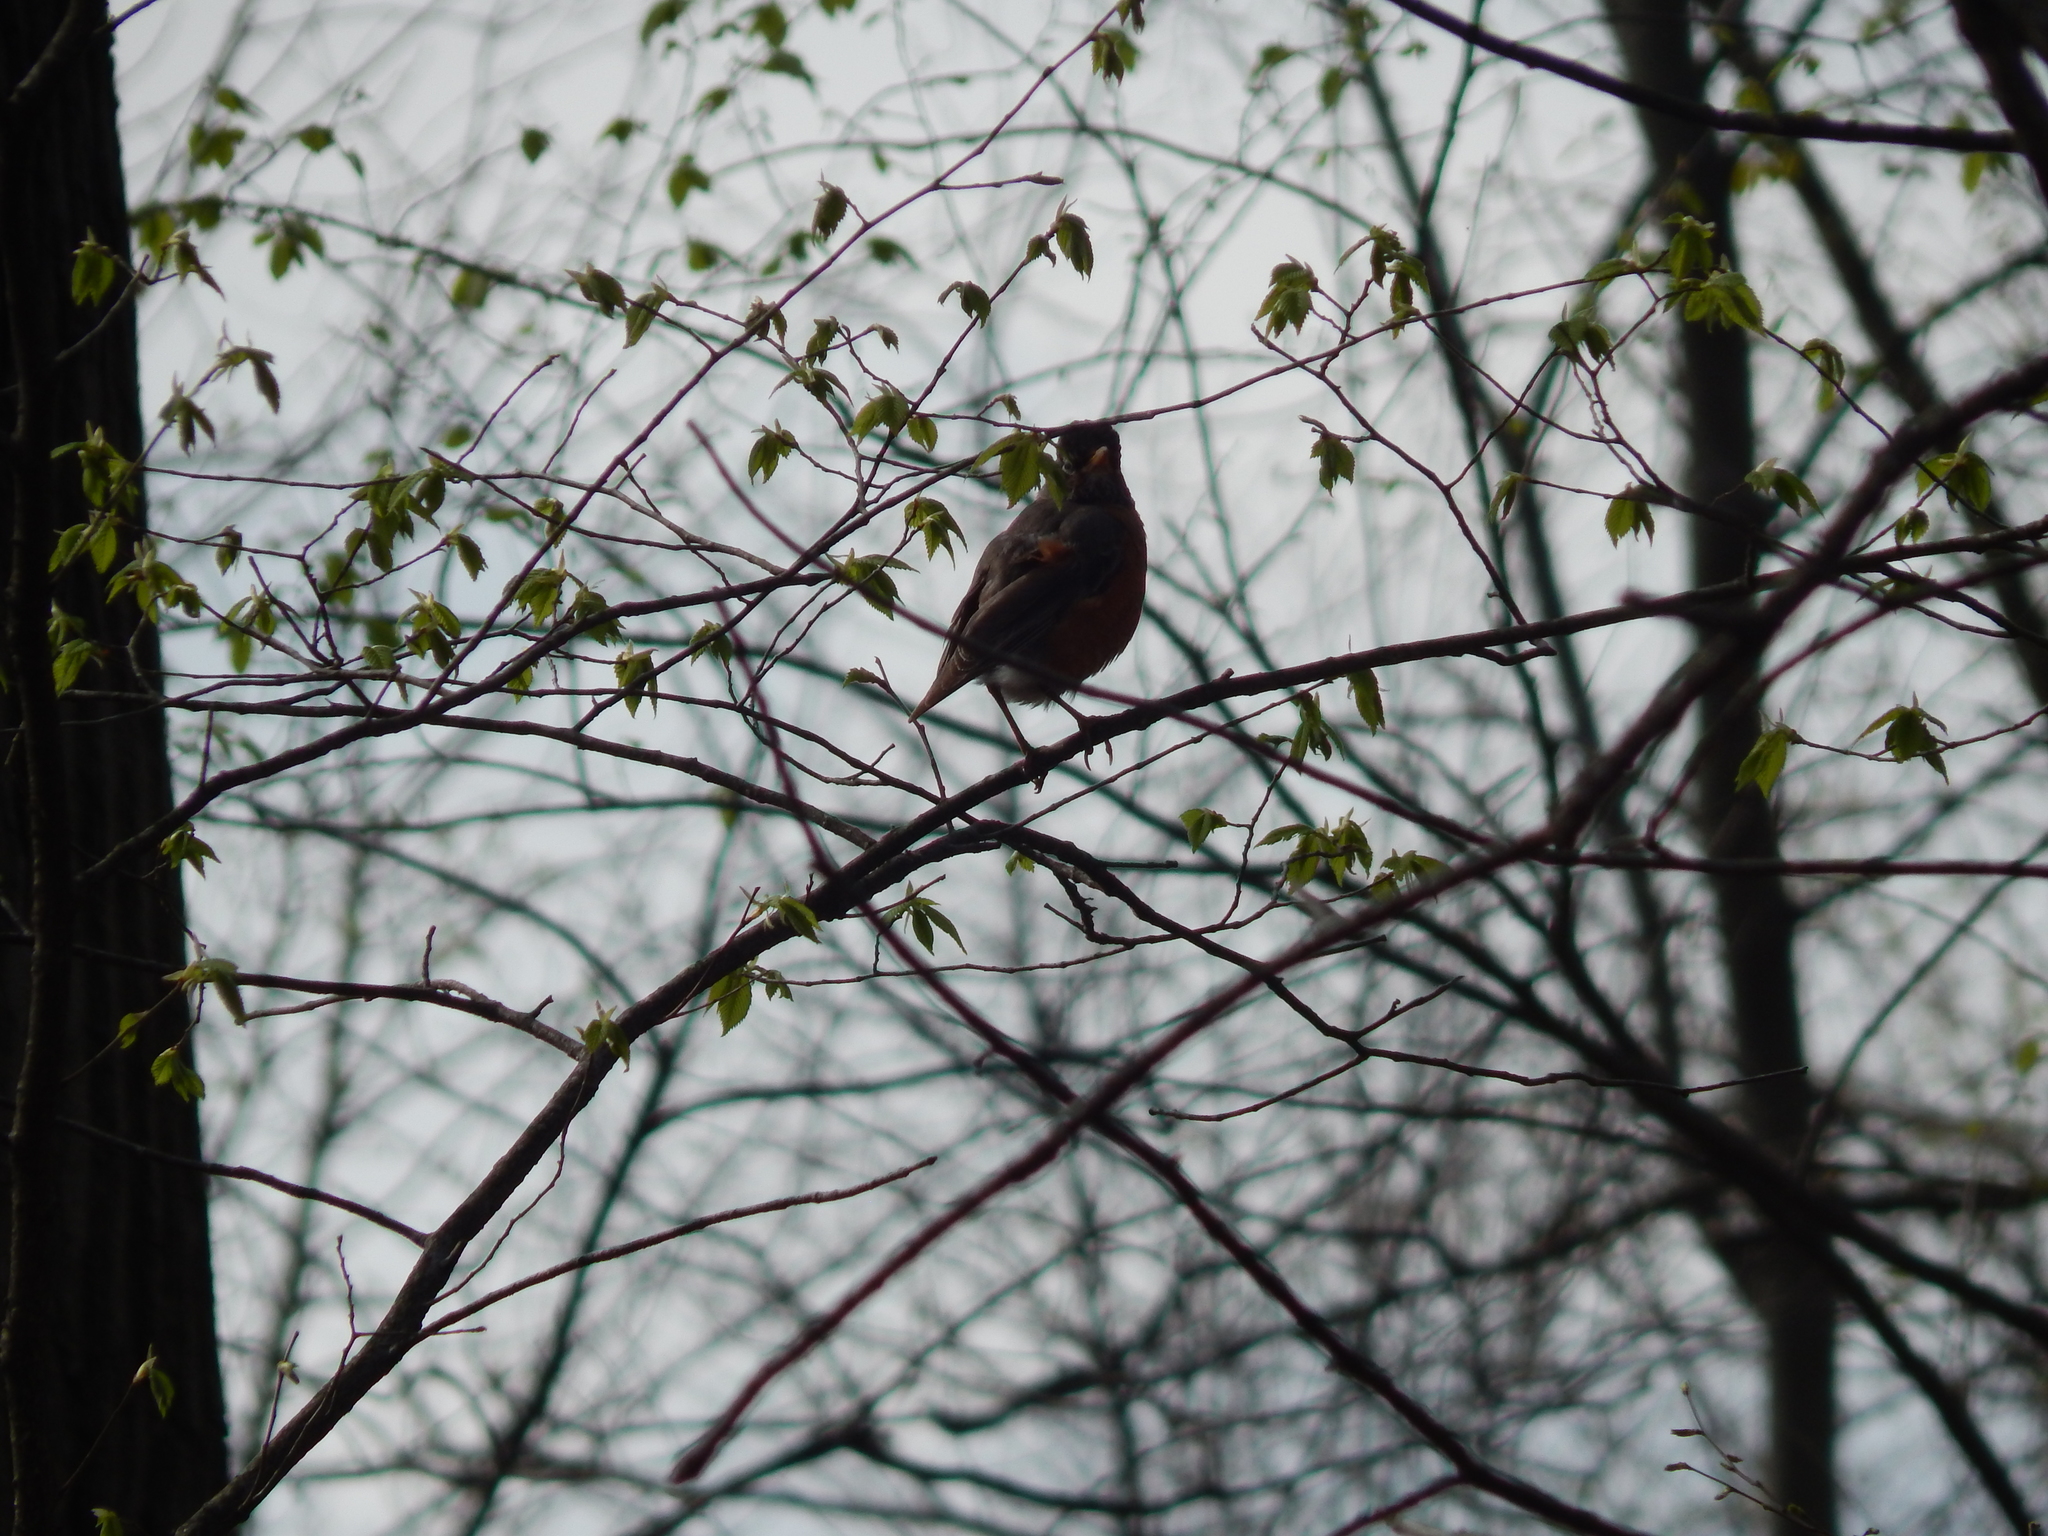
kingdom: Animalia
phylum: Chordata
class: Aves
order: Passeriformes
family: Turdidae
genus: Turdus
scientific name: Turdus migratorius
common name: American robin
